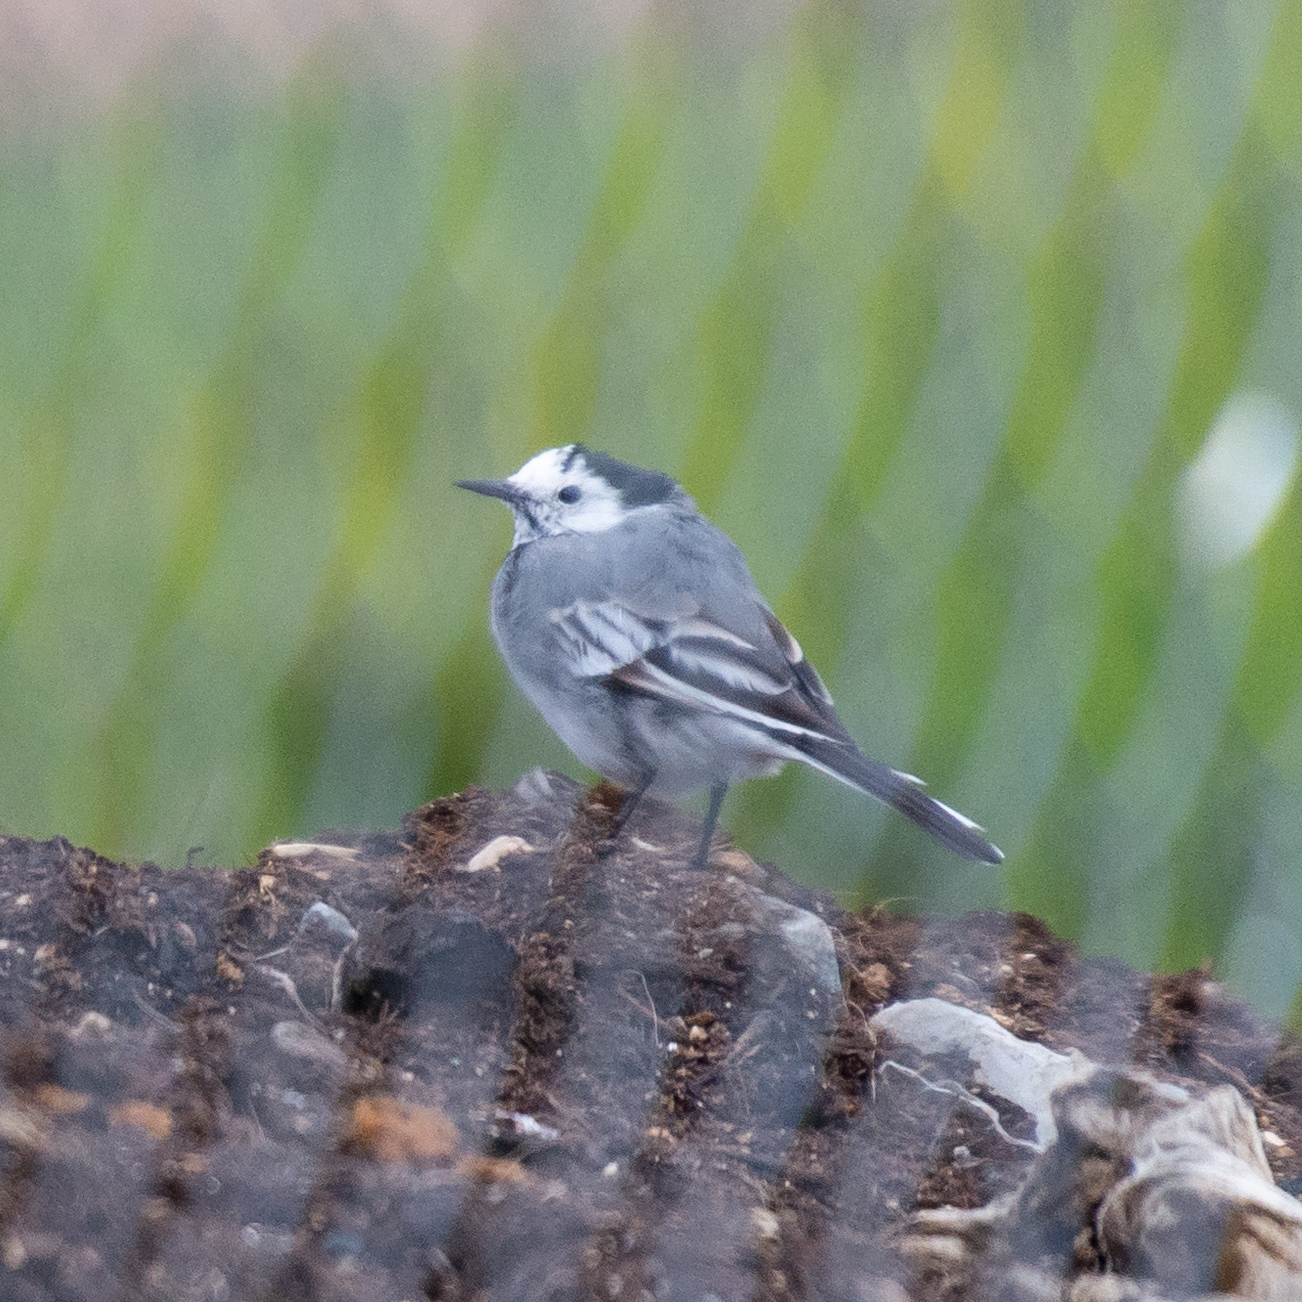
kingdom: Animalia
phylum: Chordata
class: Aves
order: Passeriformes
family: Motacillidae
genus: Motacilla
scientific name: Motacilla alba
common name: White wagtail
